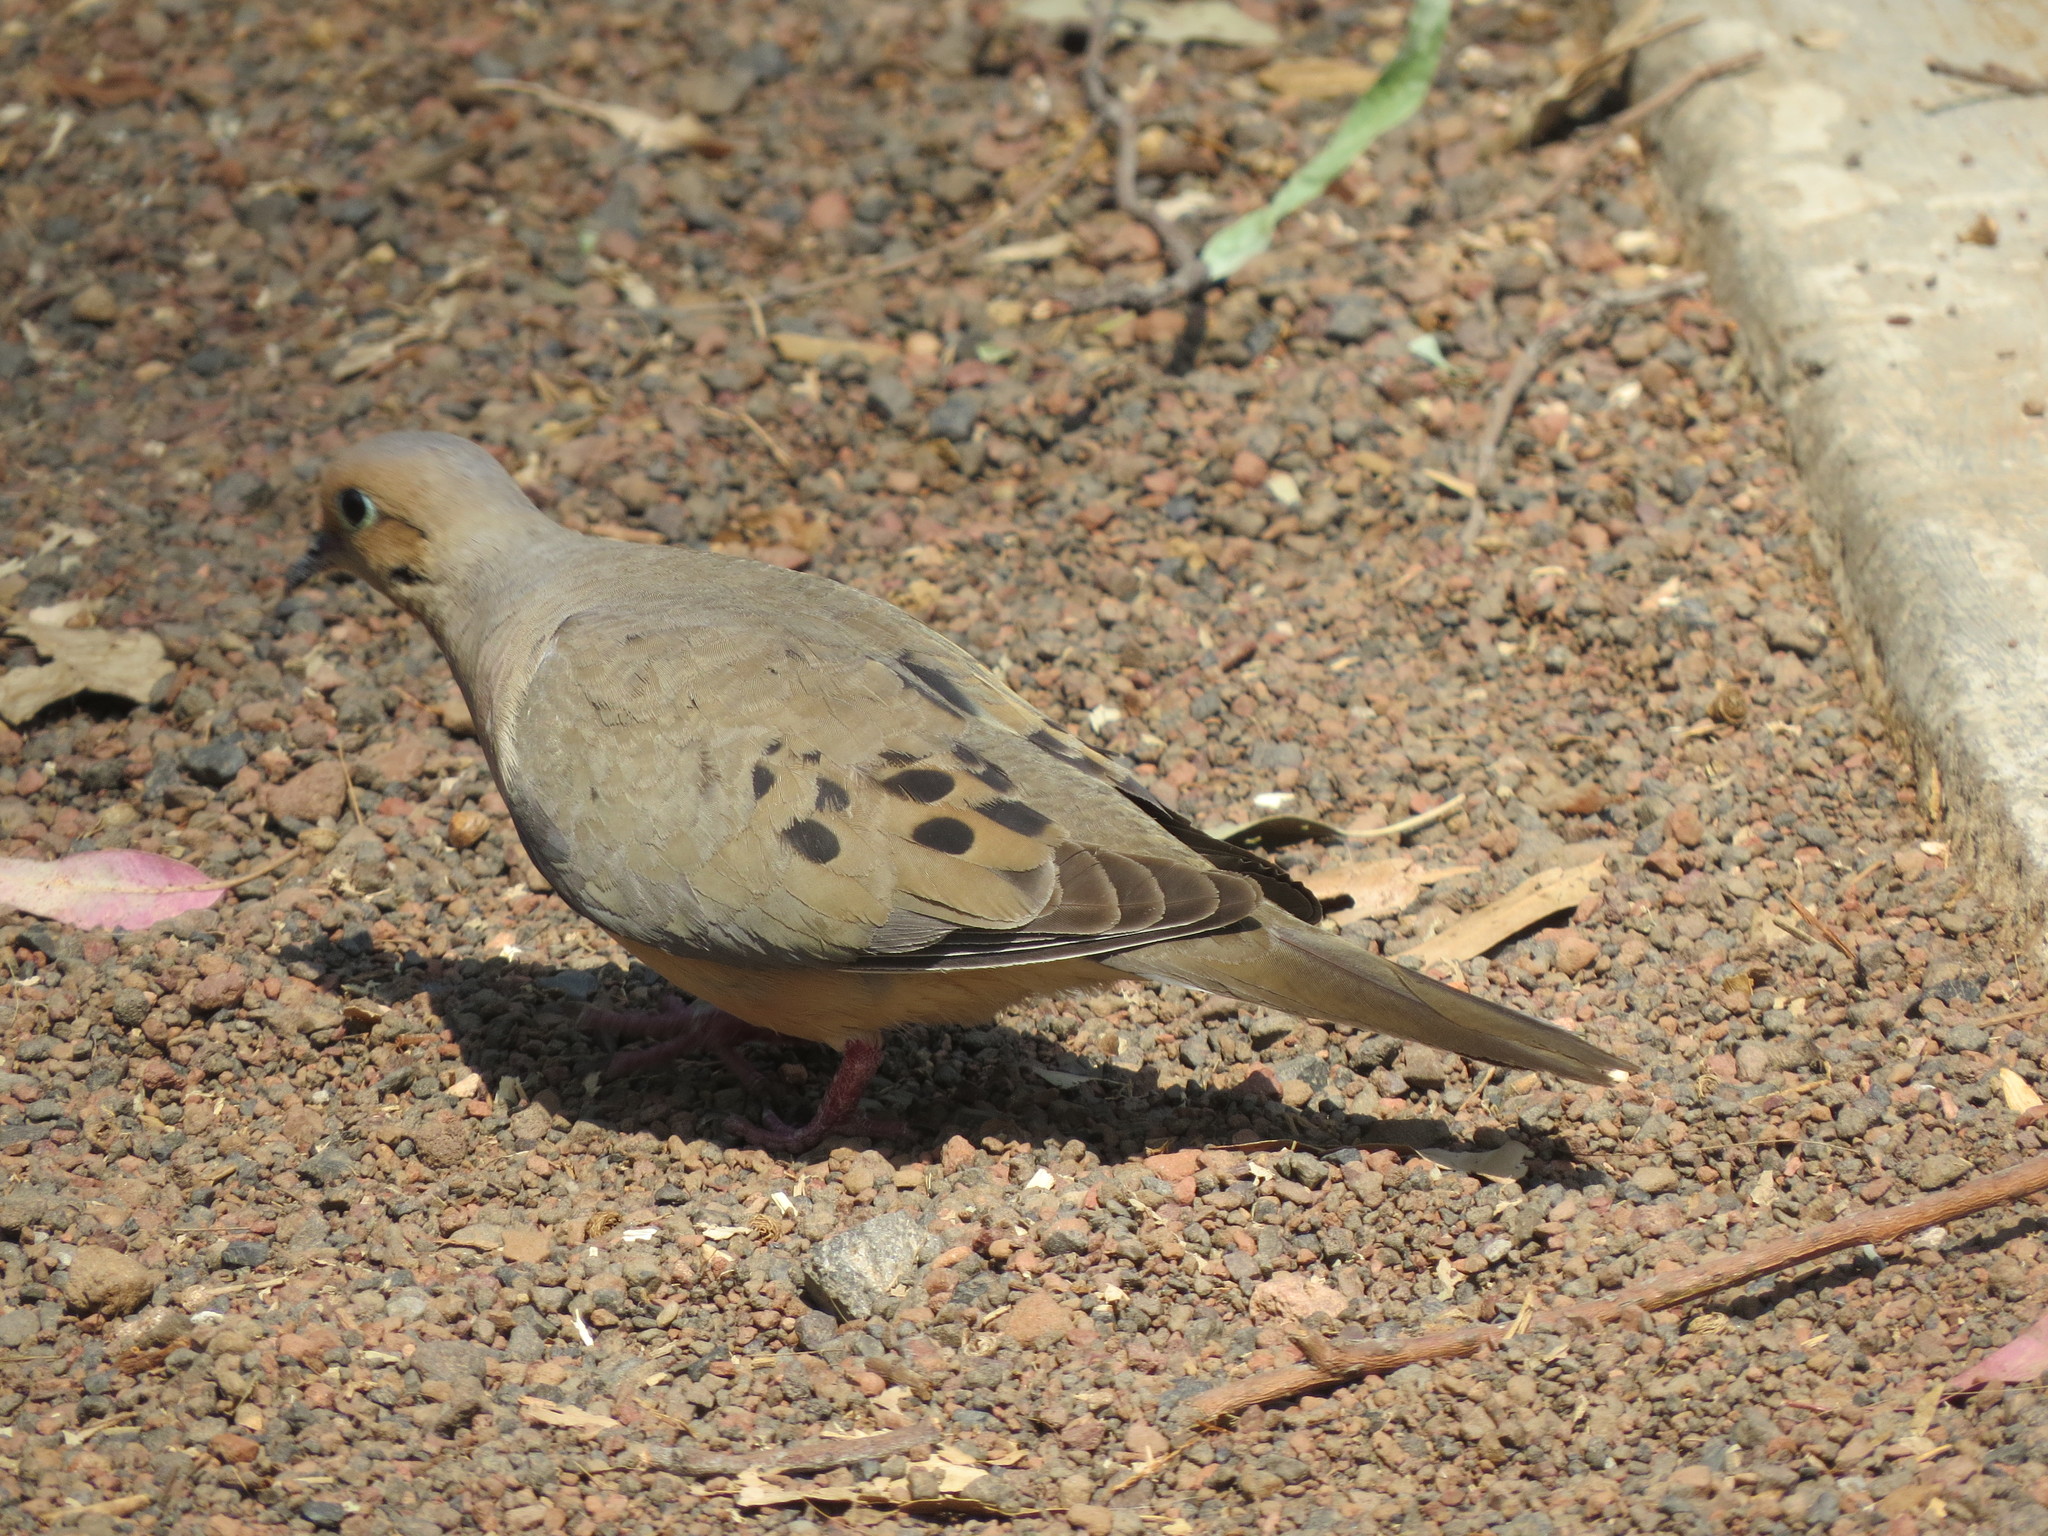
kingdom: Animalia
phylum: Chordata
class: Aves
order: Columbiformes
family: Columbidae
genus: Zenaida
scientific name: Zenaida macroura
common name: Mourning dove
